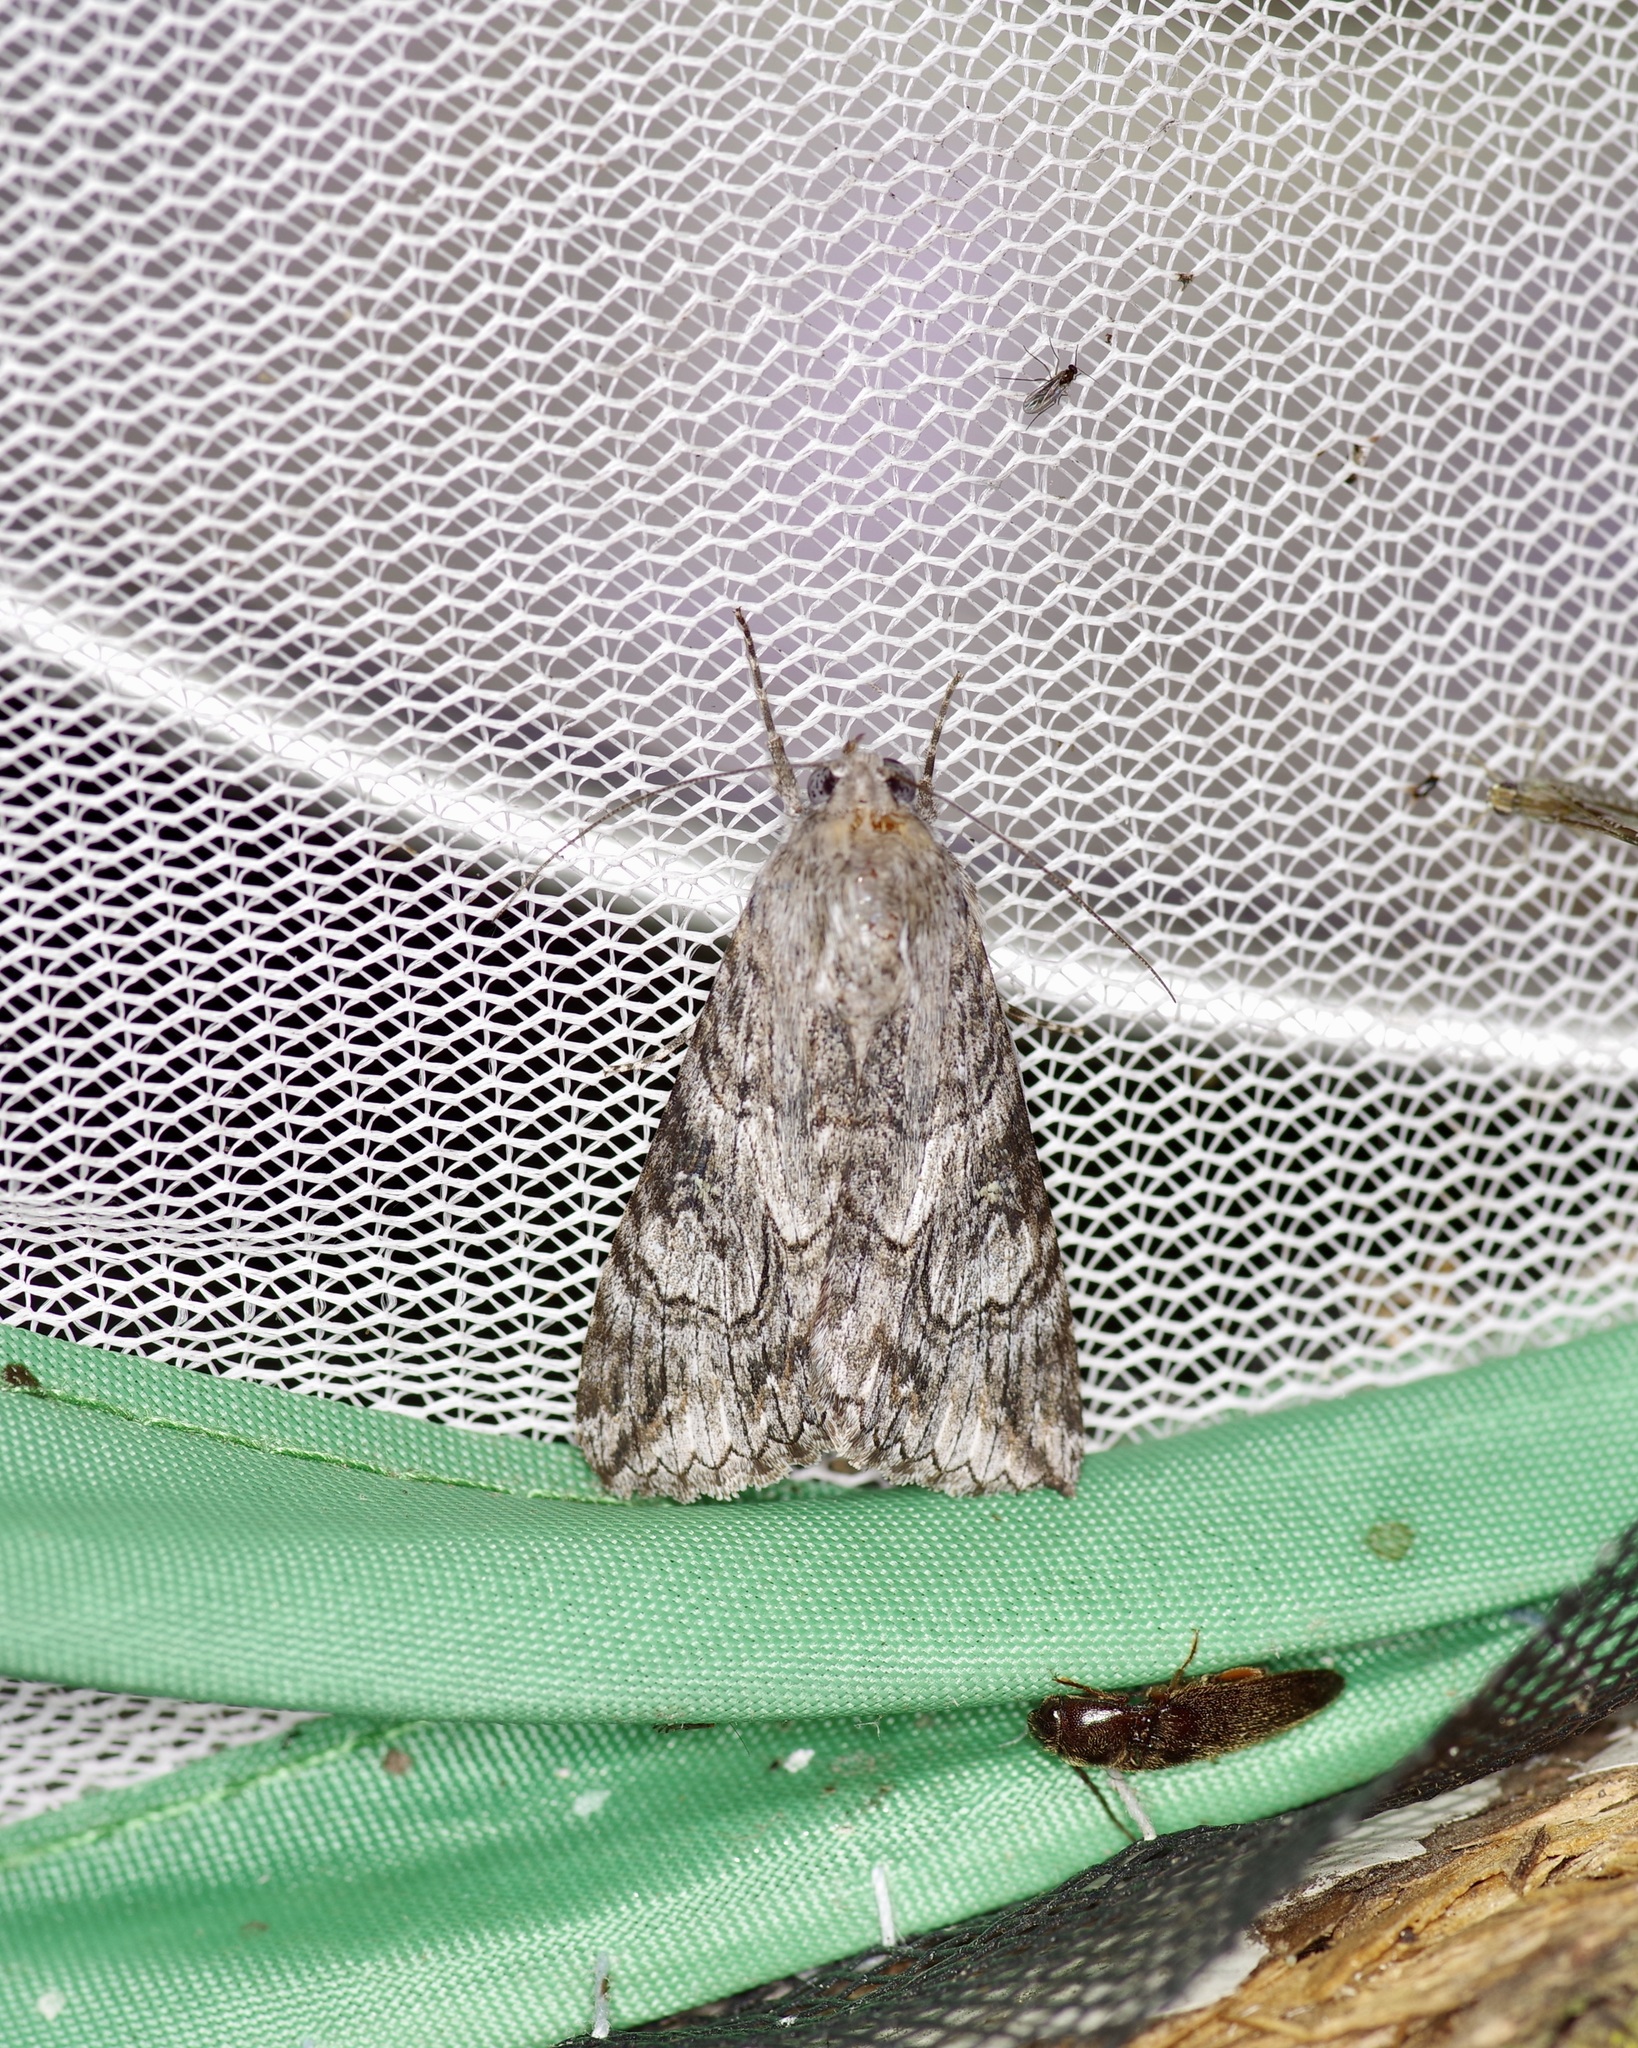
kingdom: Animalia
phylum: Arthropoda
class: Insecta
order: Lepidoptera
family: Erebidae
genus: Melipotis
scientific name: Melipotis jucunda
